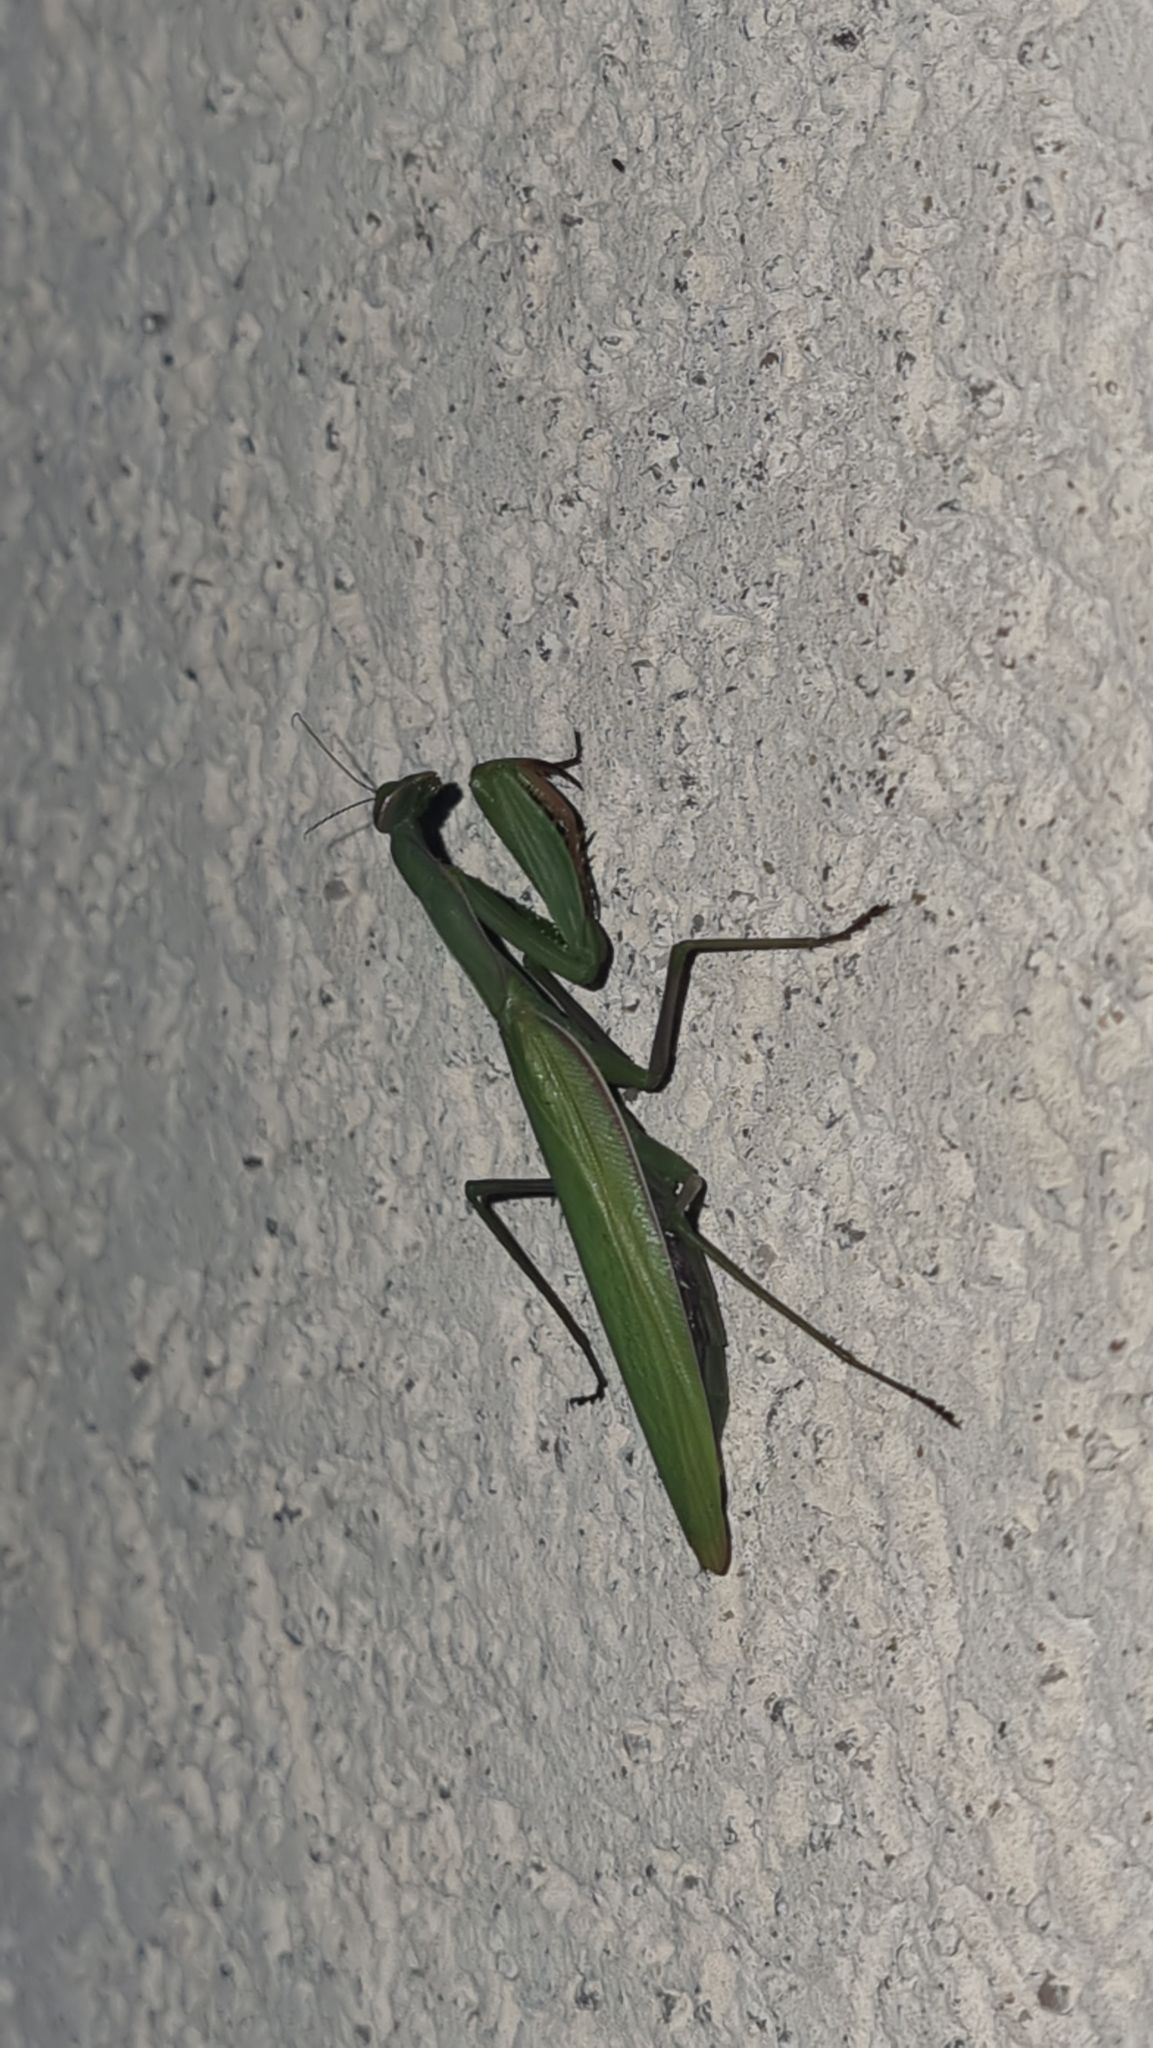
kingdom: Animalia
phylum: Arthropoda
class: Insecta
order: Mantodea
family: Mantidae
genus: Mantis
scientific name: Mantis religiosa
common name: Praying mantis
